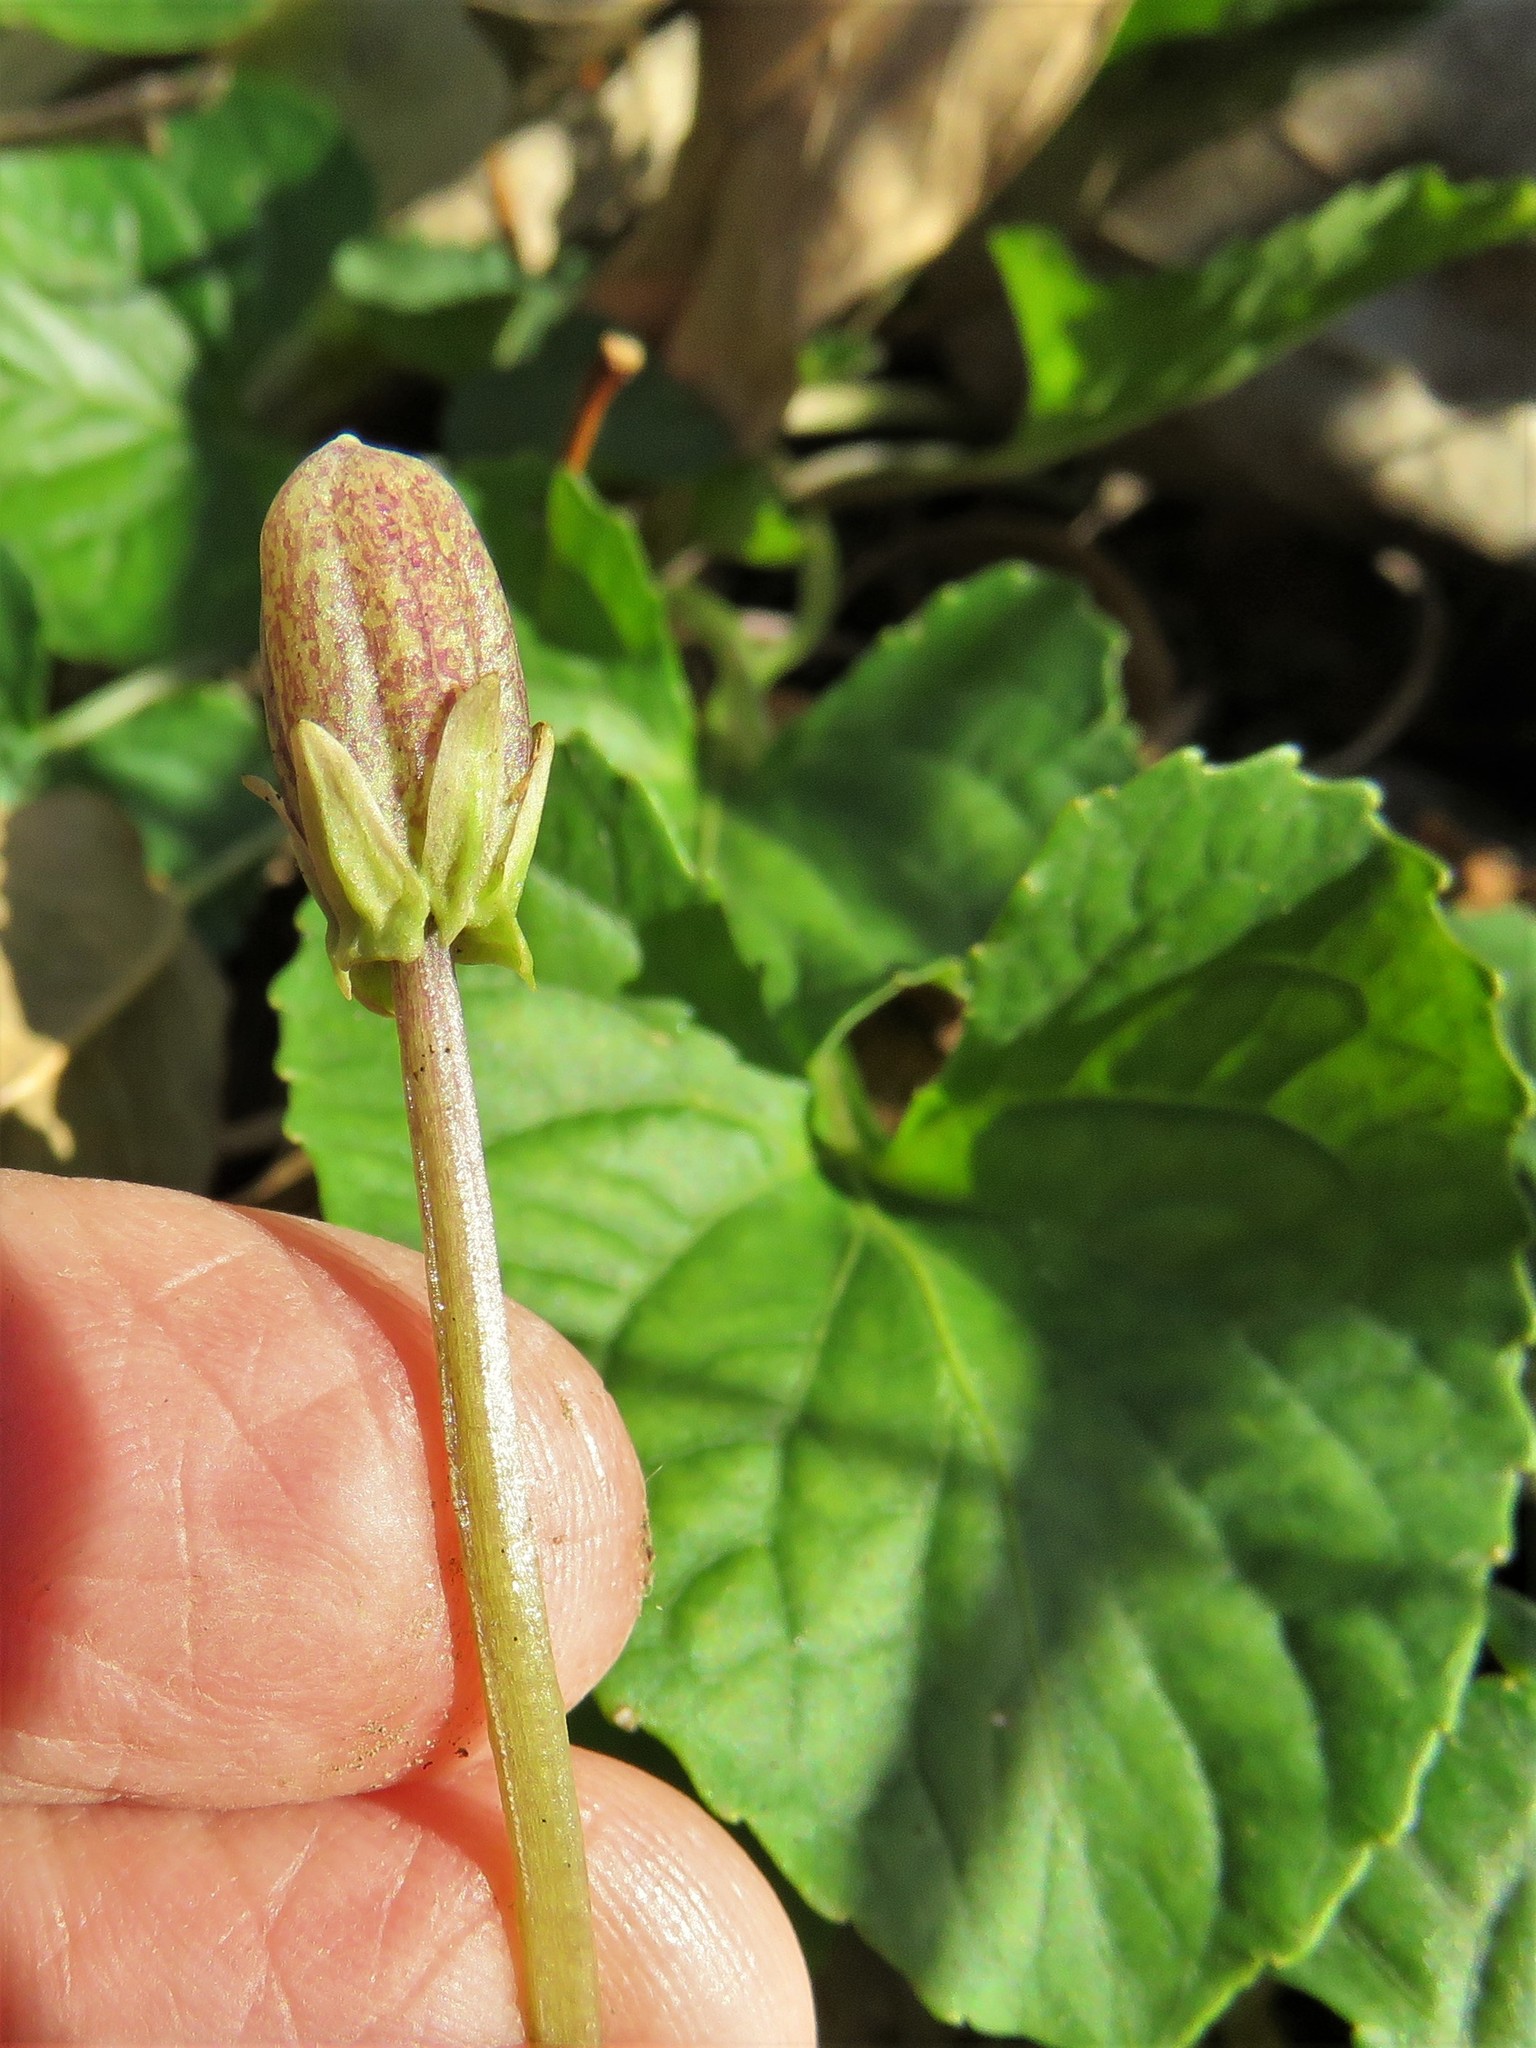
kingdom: Plantae
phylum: Tracheophyta
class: Magnoliopsida
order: Malpighiales
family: Violaceae
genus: Viola
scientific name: Viola sororia
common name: Dooryard violet
